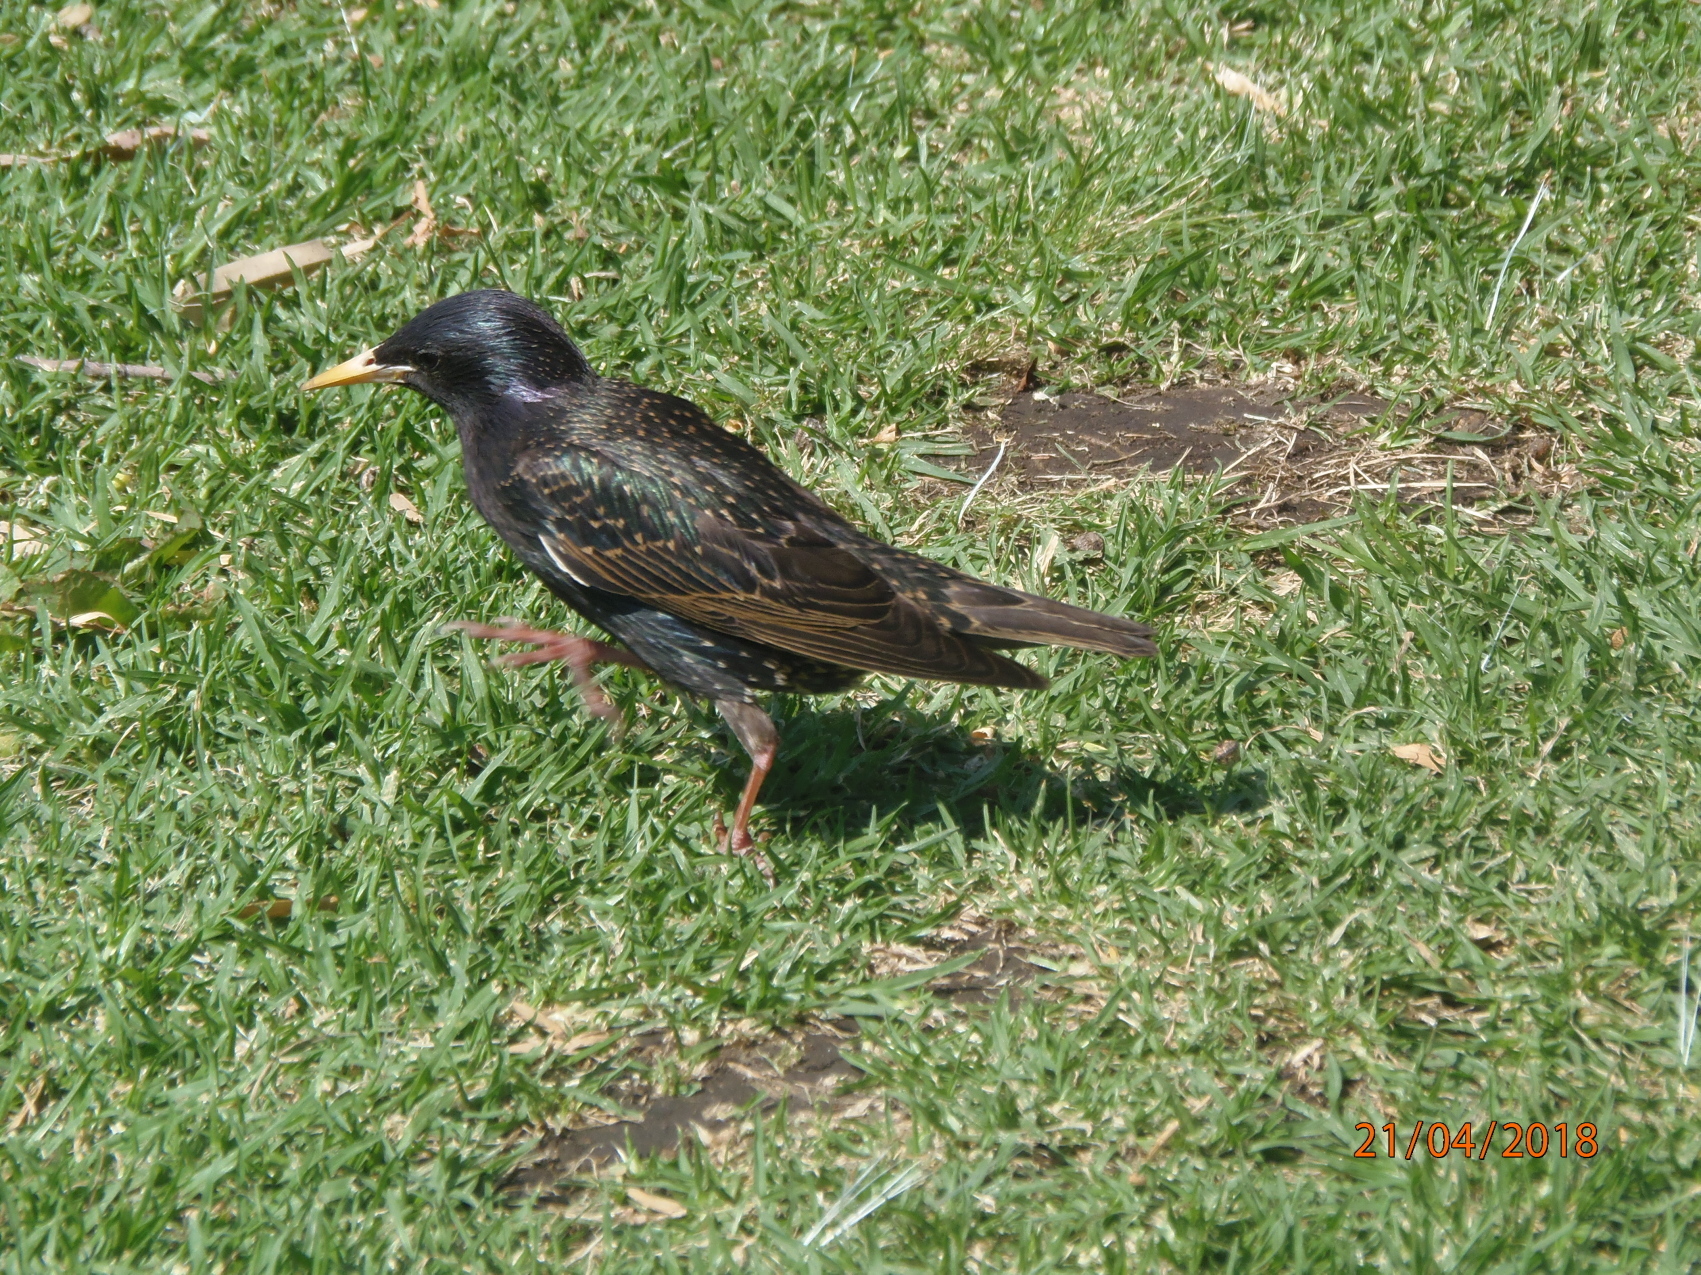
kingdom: Animalia
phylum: Chordata
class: Aves
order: Passeriformes
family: Sturnidae
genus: Sturnus
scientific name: Sturnus vulgaris
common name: Common starling
